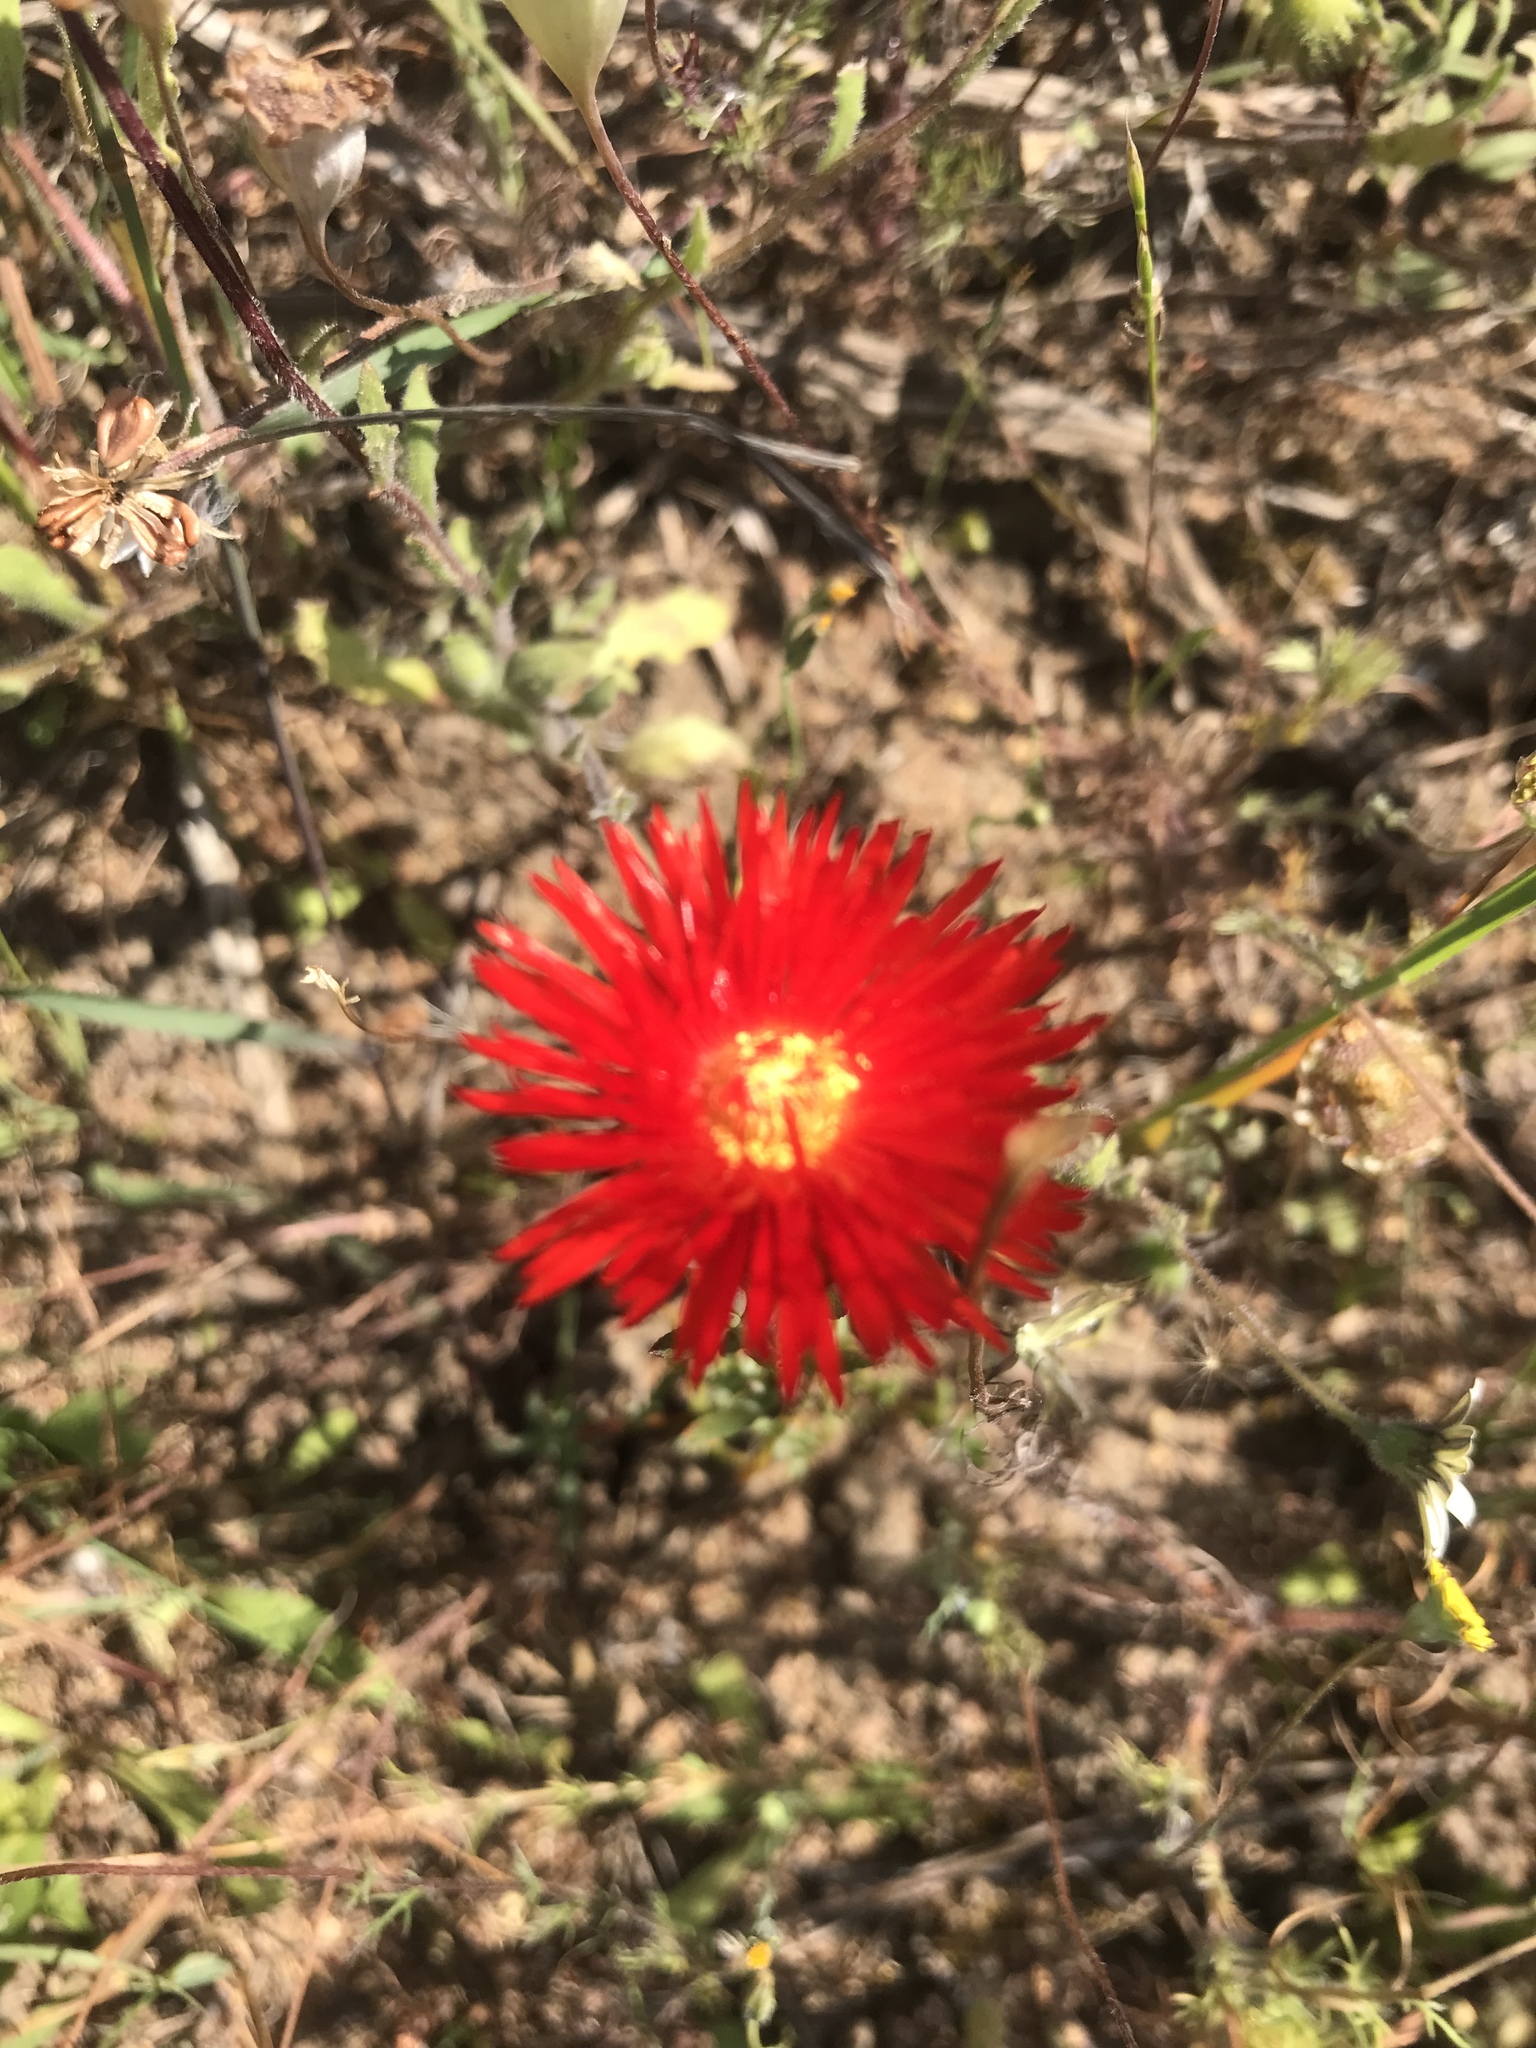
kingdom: Plantae
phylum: Tracheophyta
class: Magnoliopsida
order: Caryophyllales
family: Aizoaceae
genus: Lampranthus
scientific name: Lampranthus coccineus
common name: Redflush
